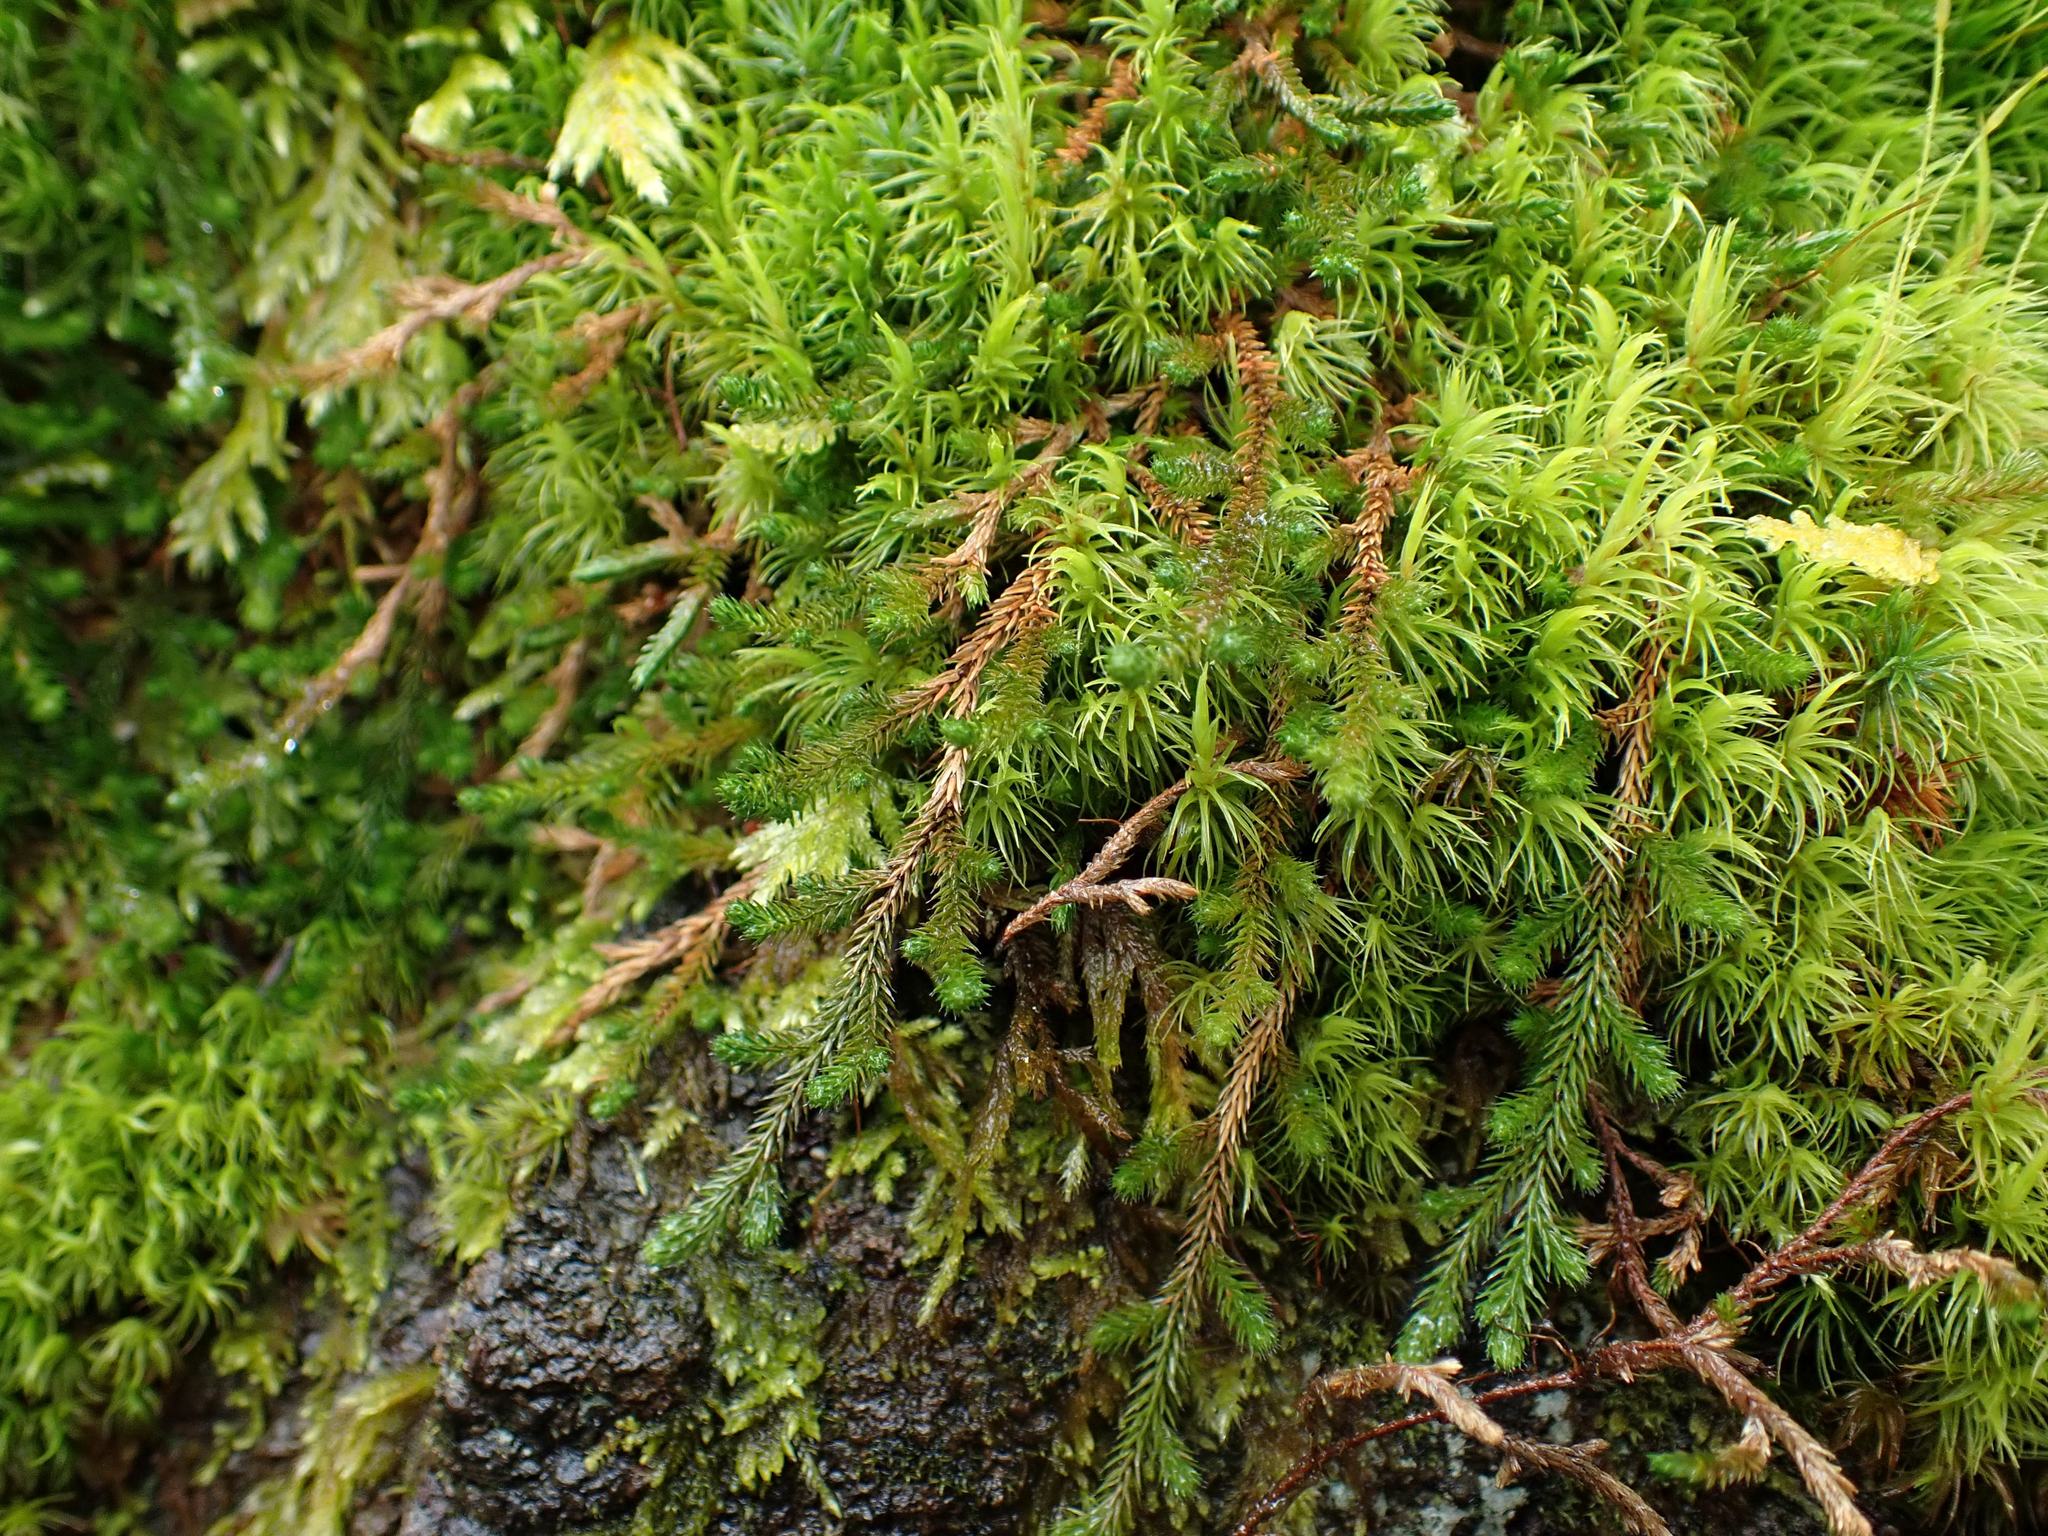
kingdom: Plantae
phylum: Tracheophyta
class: Lycopodiopsida
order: Selaginellales
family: Selaginellaceae
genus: Selaginella
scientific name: Selaginella wallacei
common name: Wallace's selaginella
